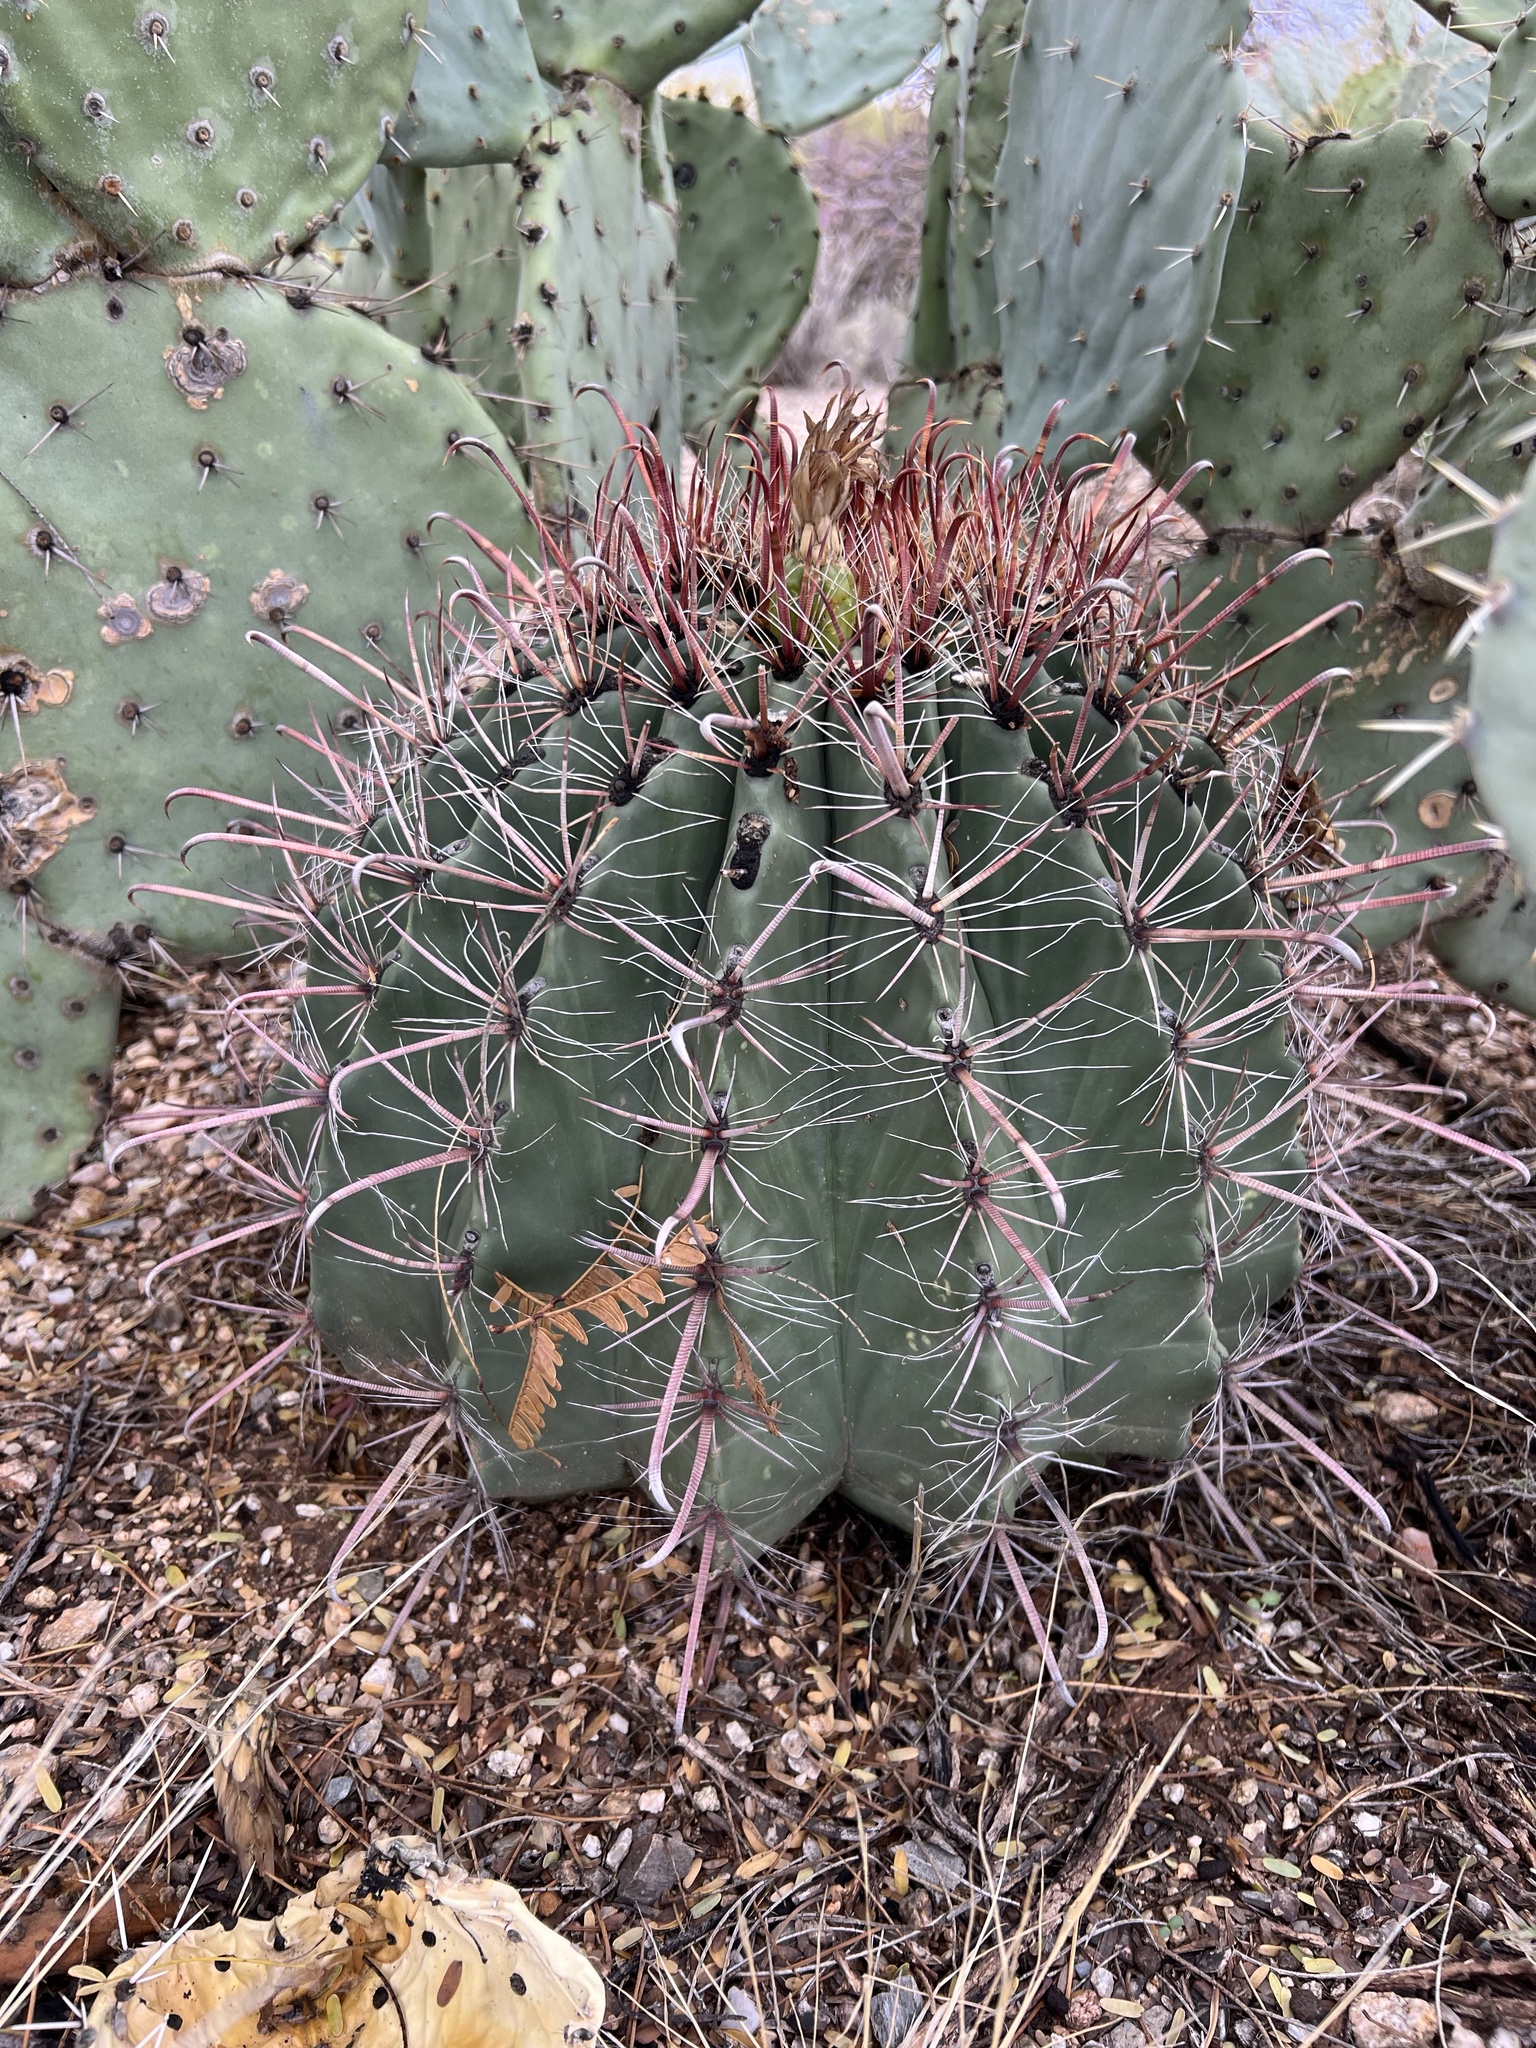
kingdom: Plantae
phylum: Tracheophyta
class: Magnoliopsida
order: Caryophyllales
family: Cactaceae
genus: Ferocactus
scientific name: Ferocactus wislizeni
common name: Candy barrel cactus
